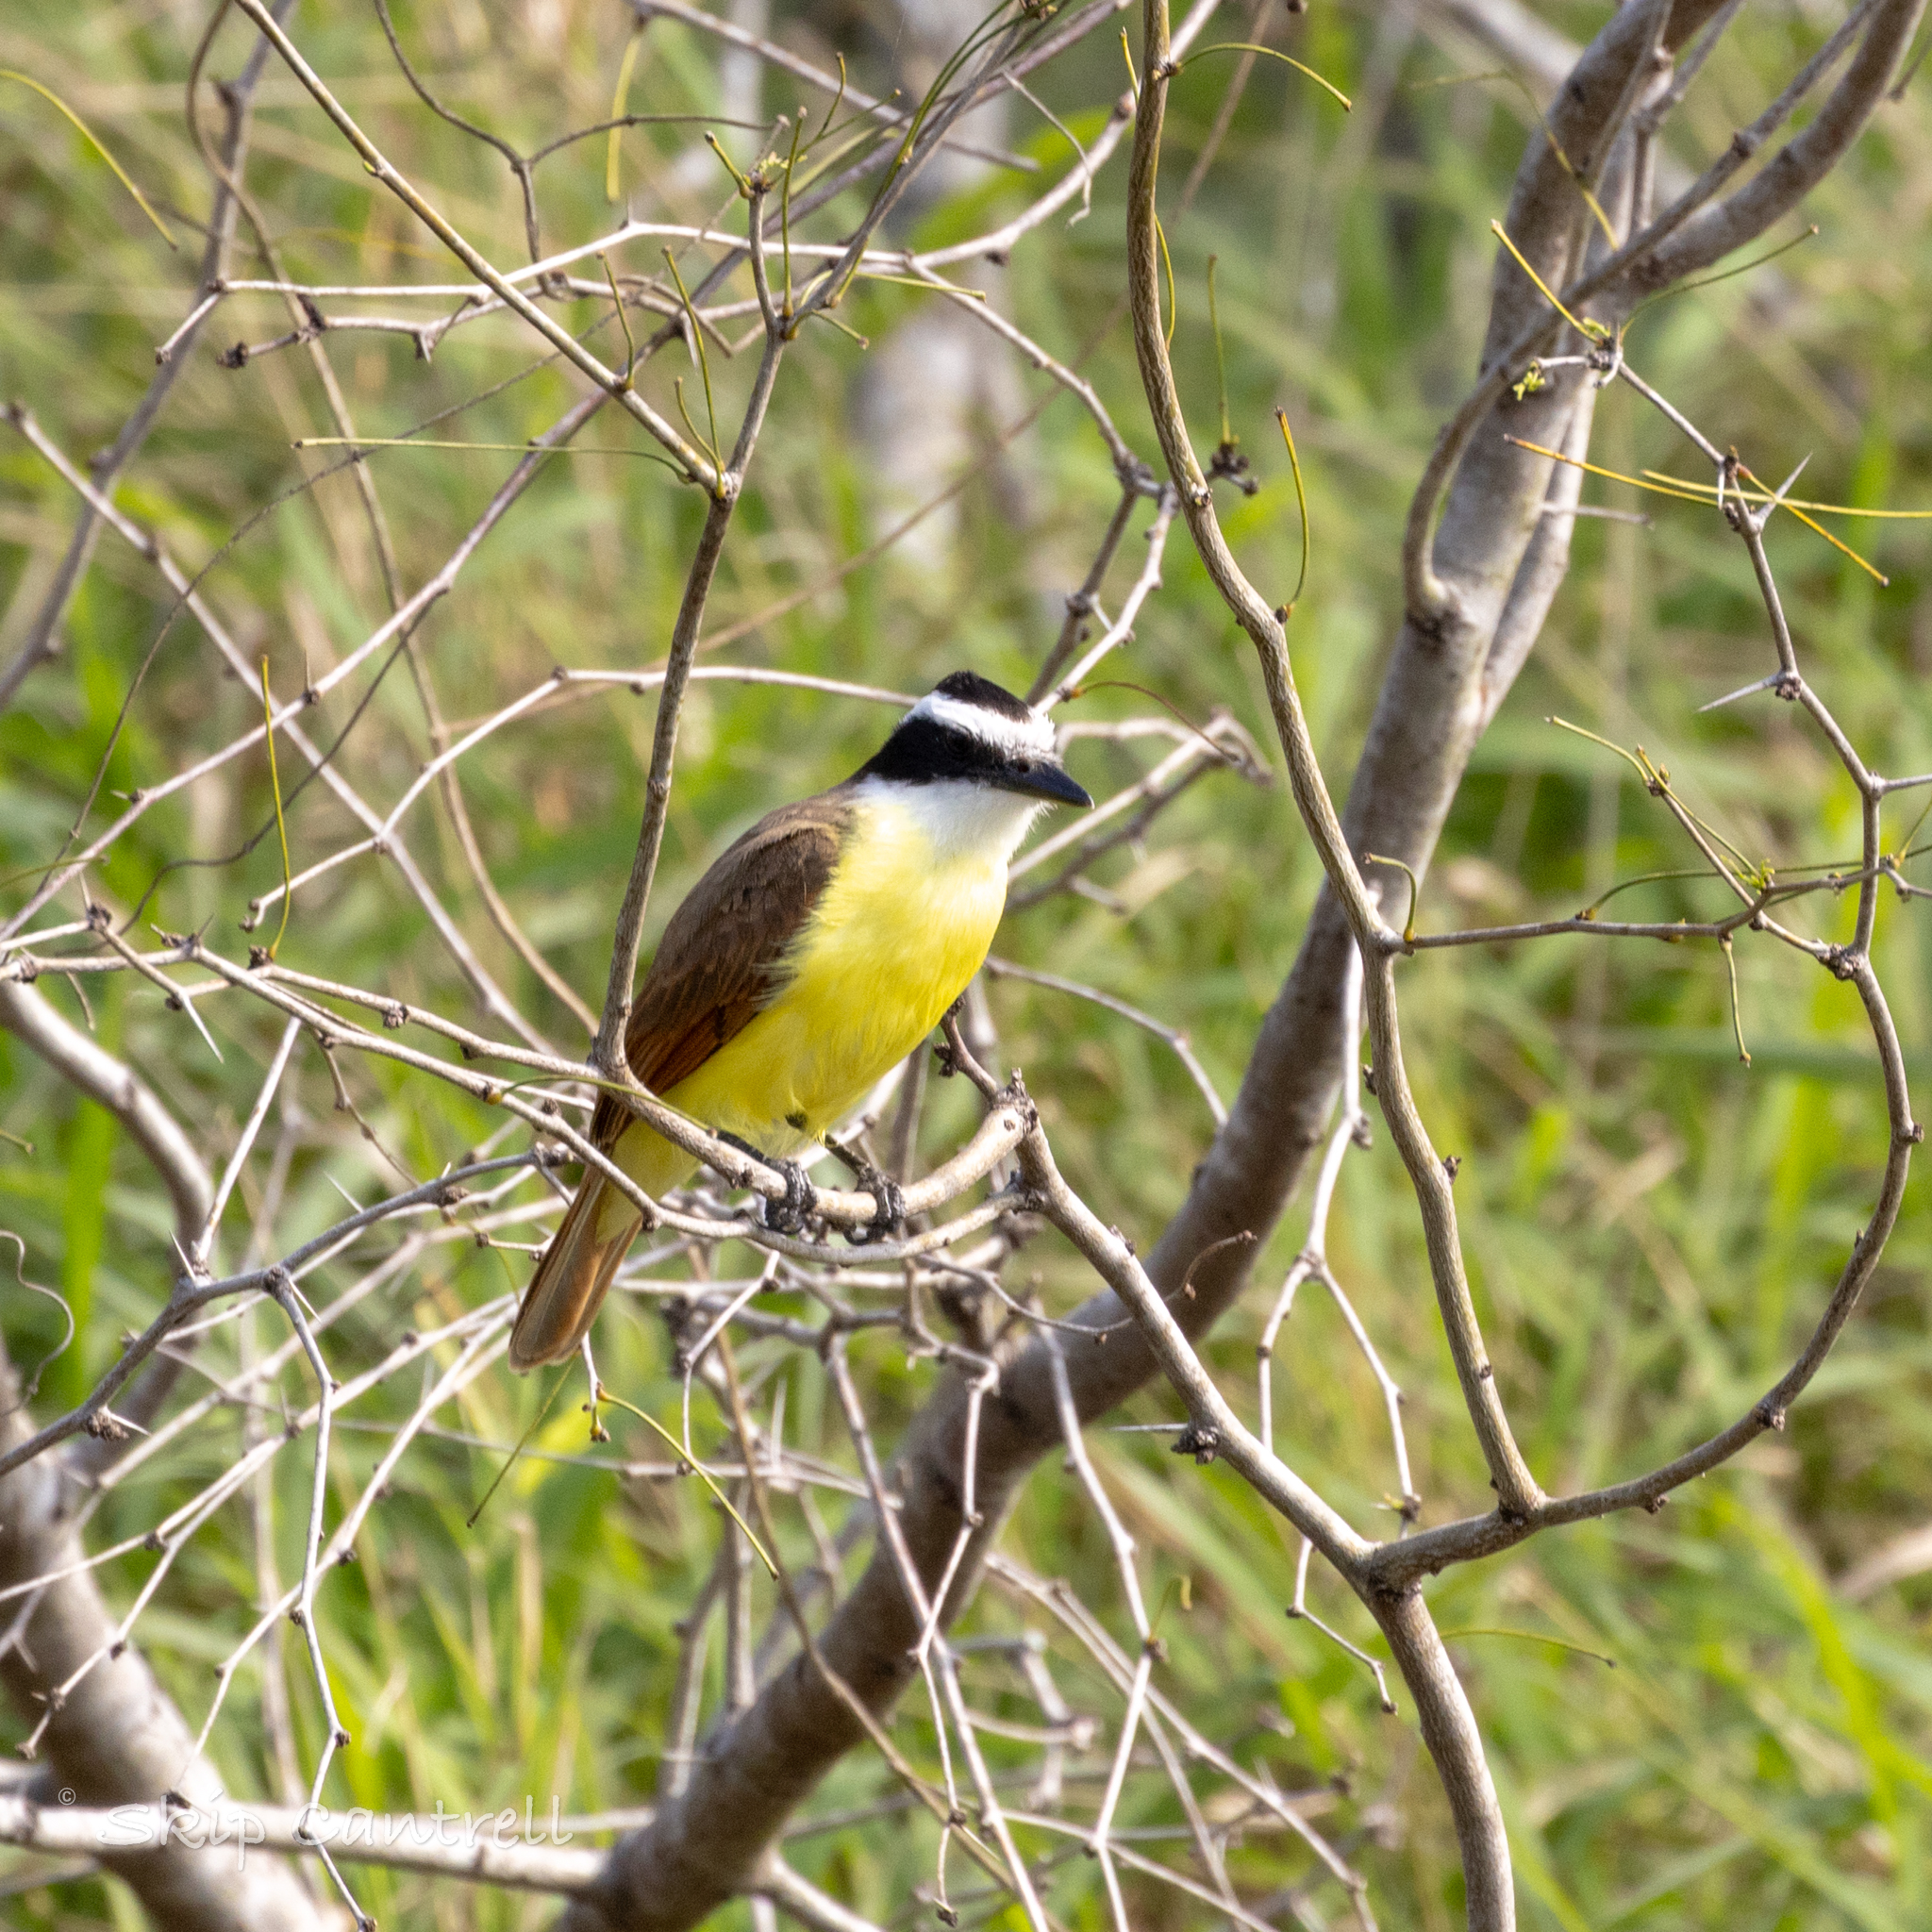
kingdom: Animalia
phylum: Chordata
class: Aves
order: Passeriformes
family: Tyrannidae
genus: Pitangus
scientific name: Pitangus sulphuratus
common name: Great kiskadee
